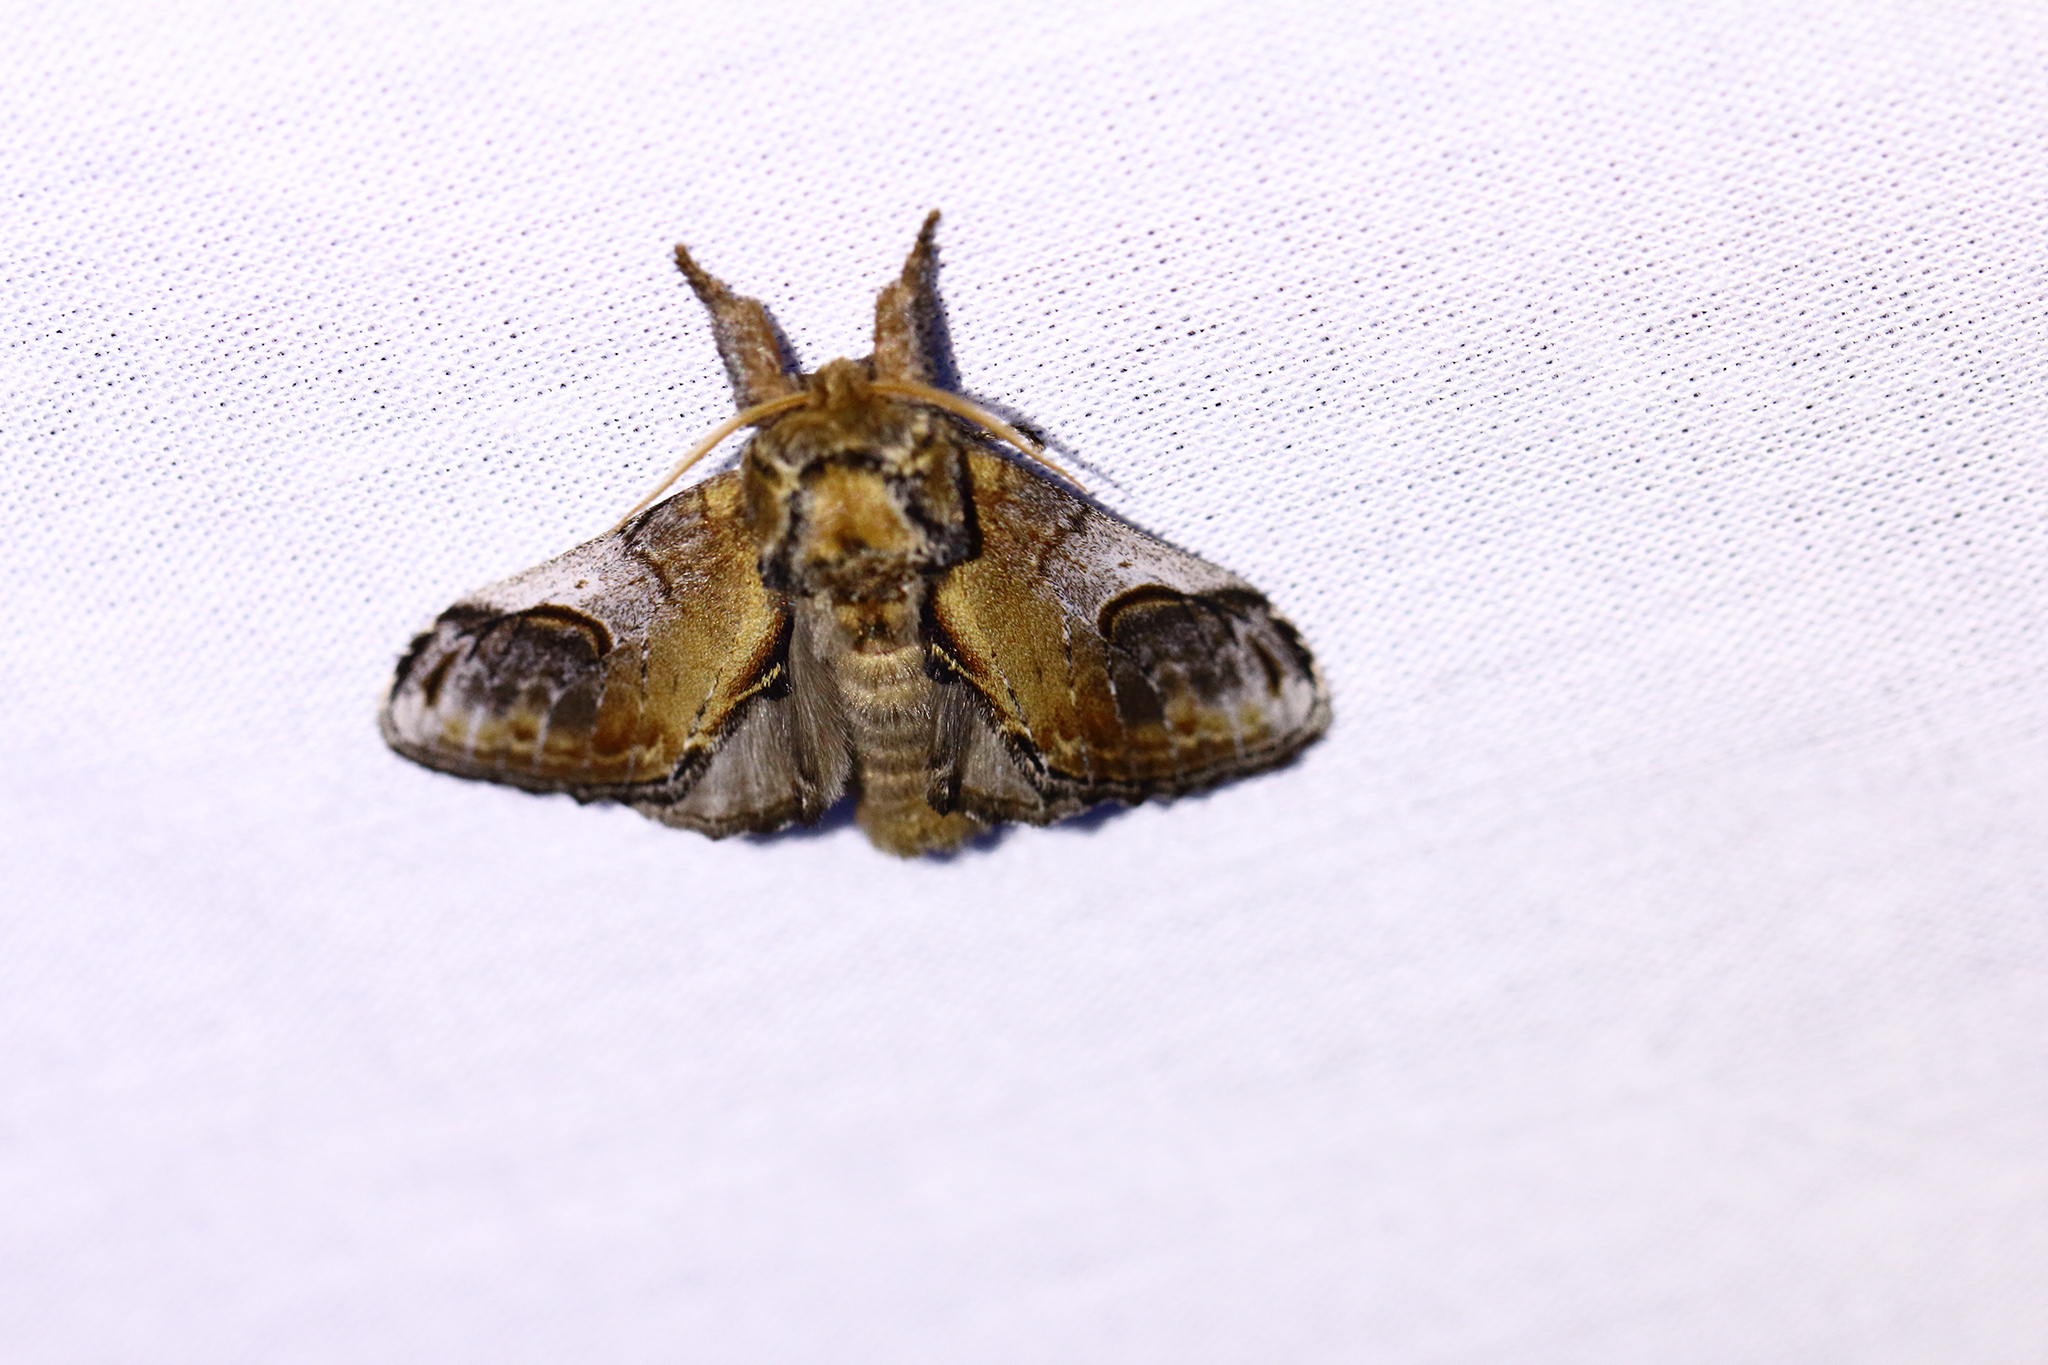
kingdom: Animalia
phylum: Arthropoda
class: Insecta
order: Lepidoptera
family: Notodontidae
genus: Notodonta
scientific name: Notodonta ziczac
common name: Pebble prominent
